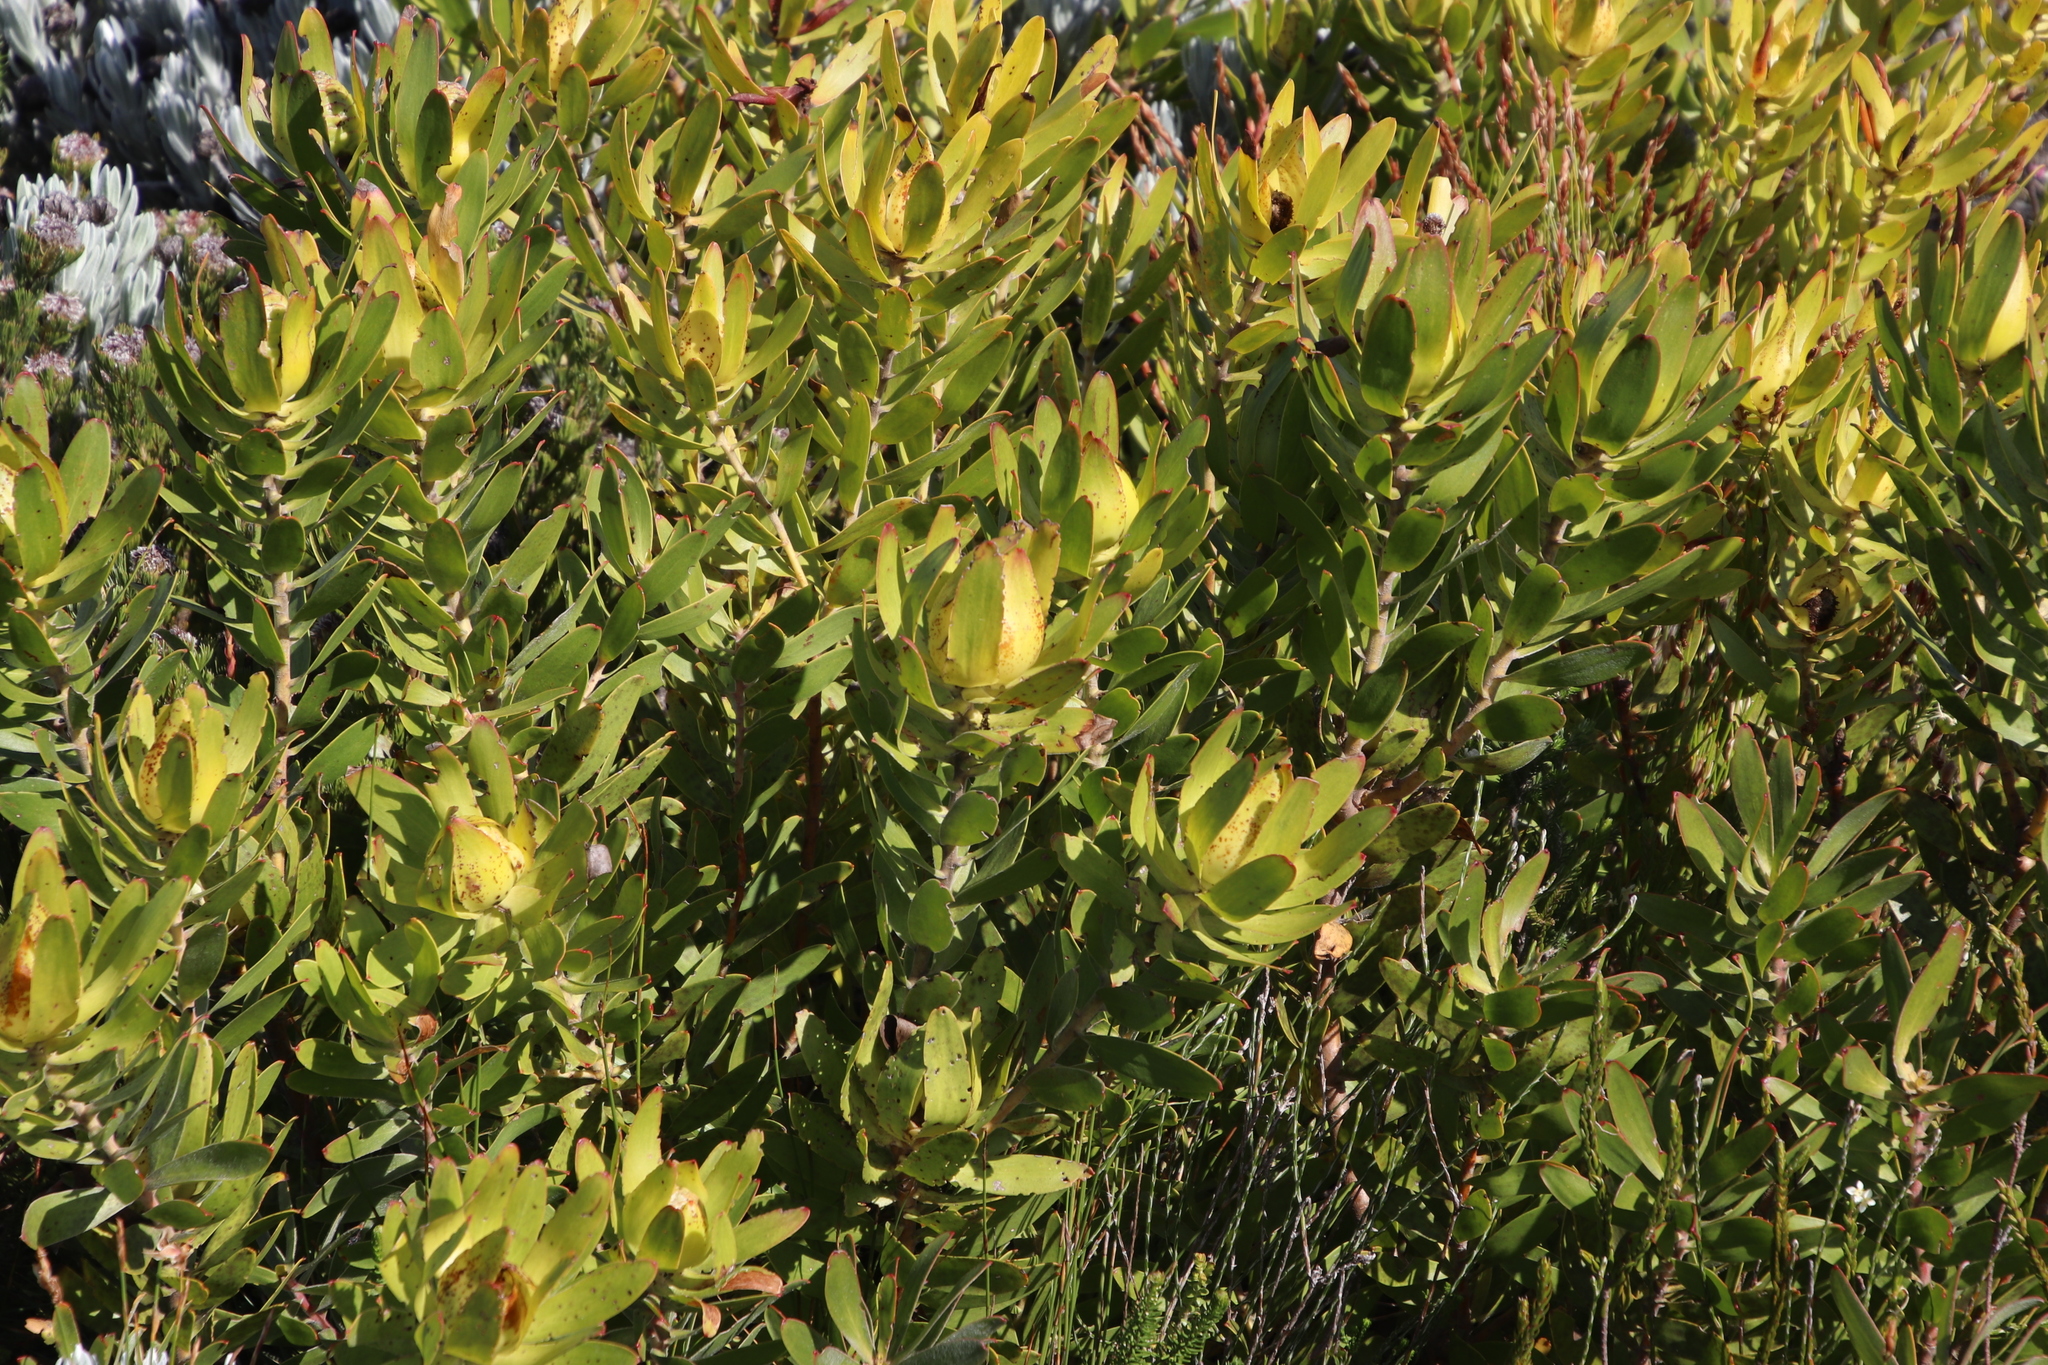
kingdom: Plantae
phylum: Tracheophyta
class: Magnoliopsida
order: Proteales
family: Proteaceae
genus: Leucadendron
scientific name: Leucadendron laureolum
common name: Golden sunshinebush
